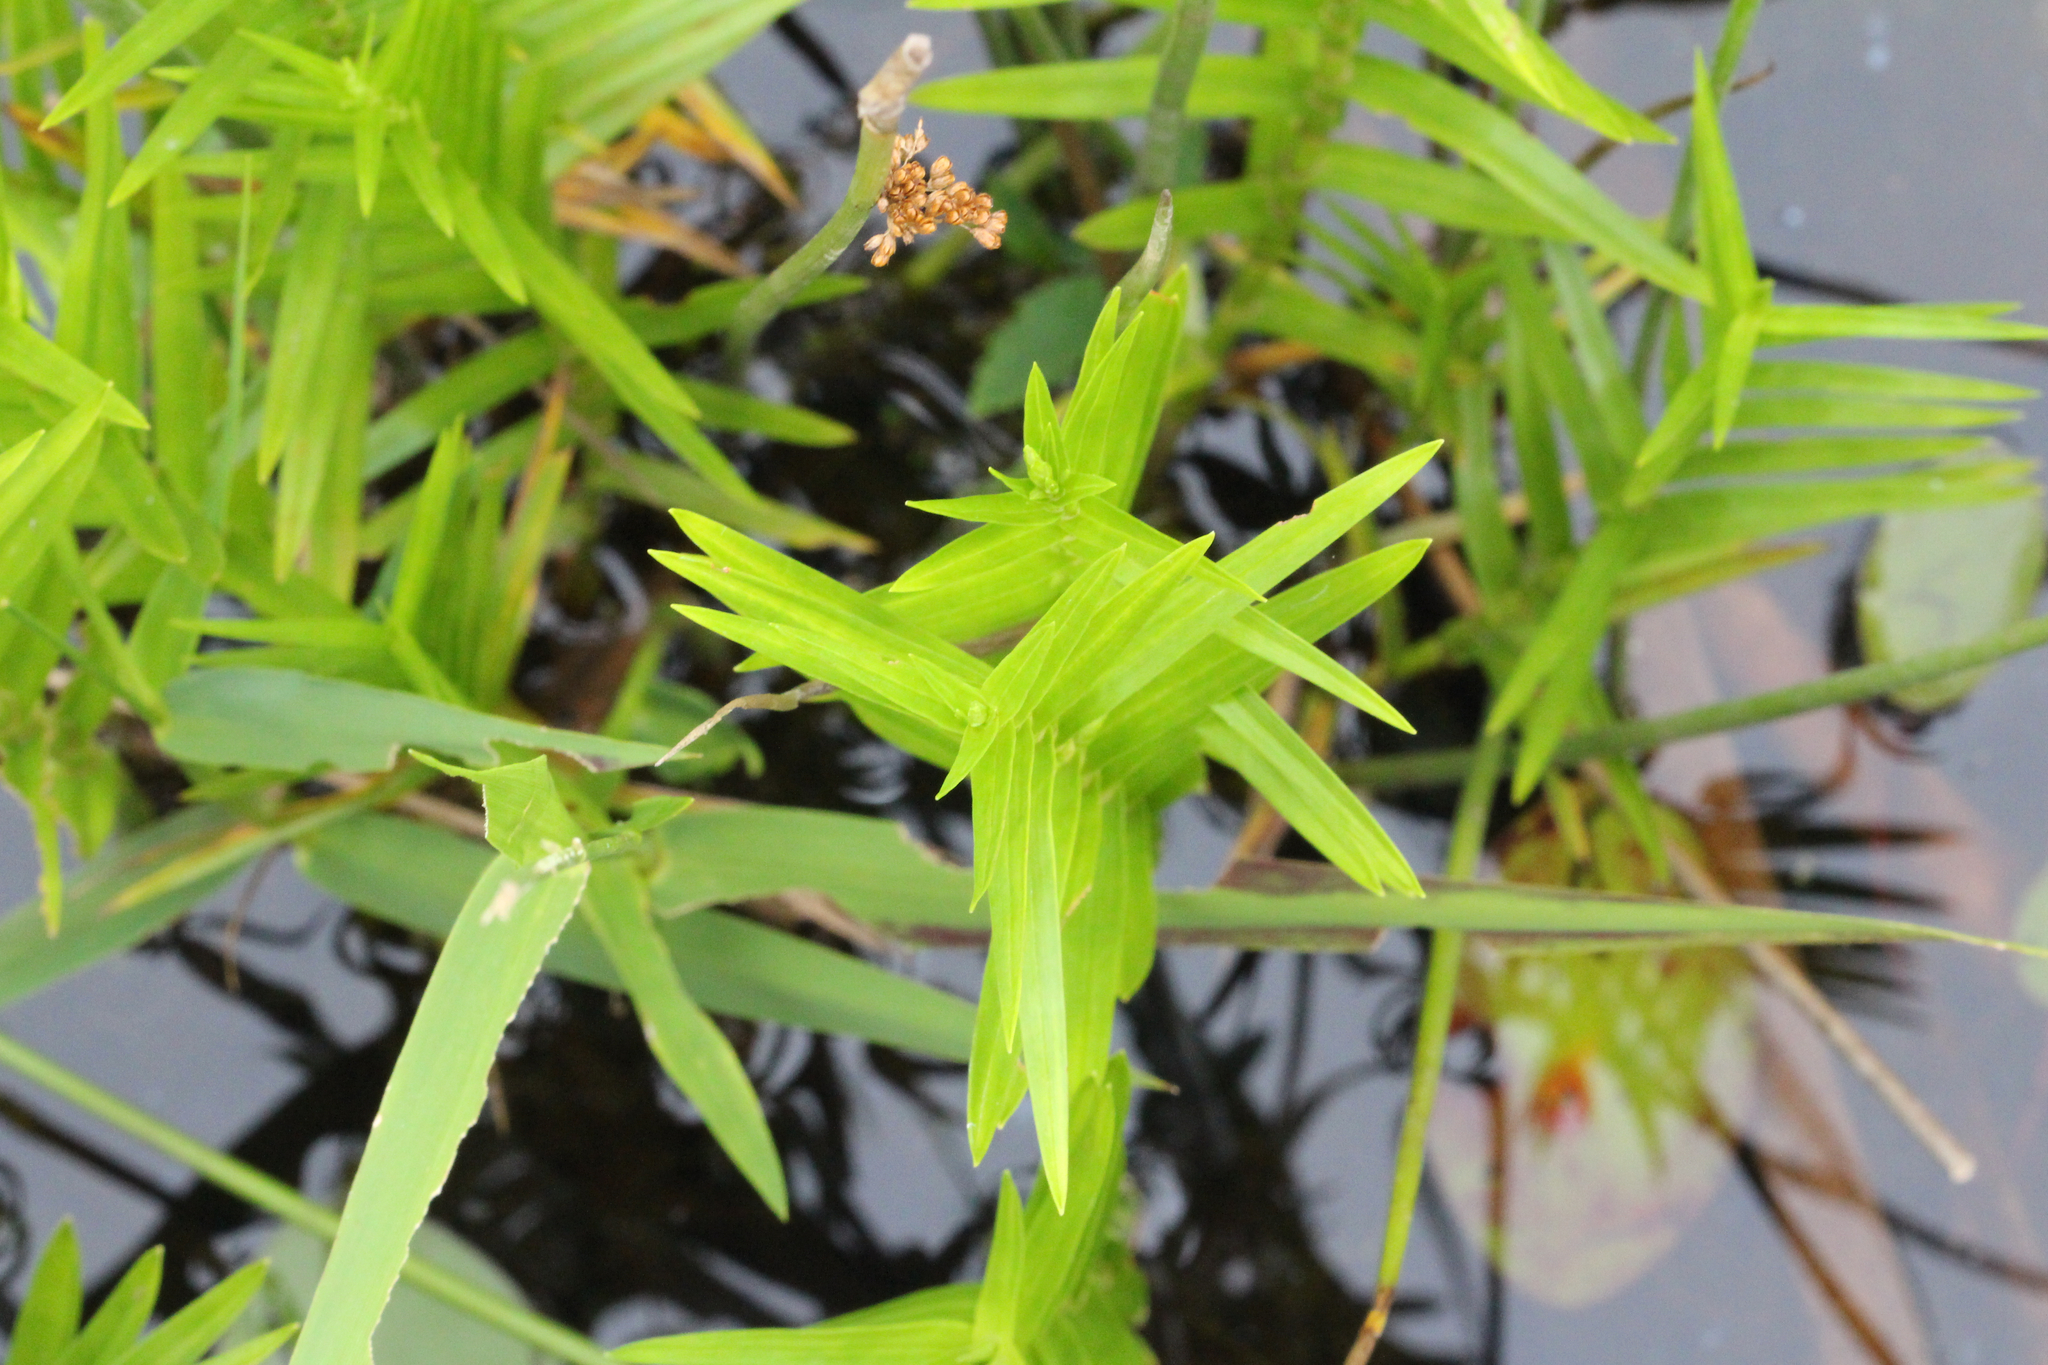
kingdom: Plantae
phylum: Tracheophyta
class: Liliopsida
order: Poales
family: Cyperaceae
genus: Dulichium
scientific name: Dulichium arundinaceum
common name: Three-way sedge
